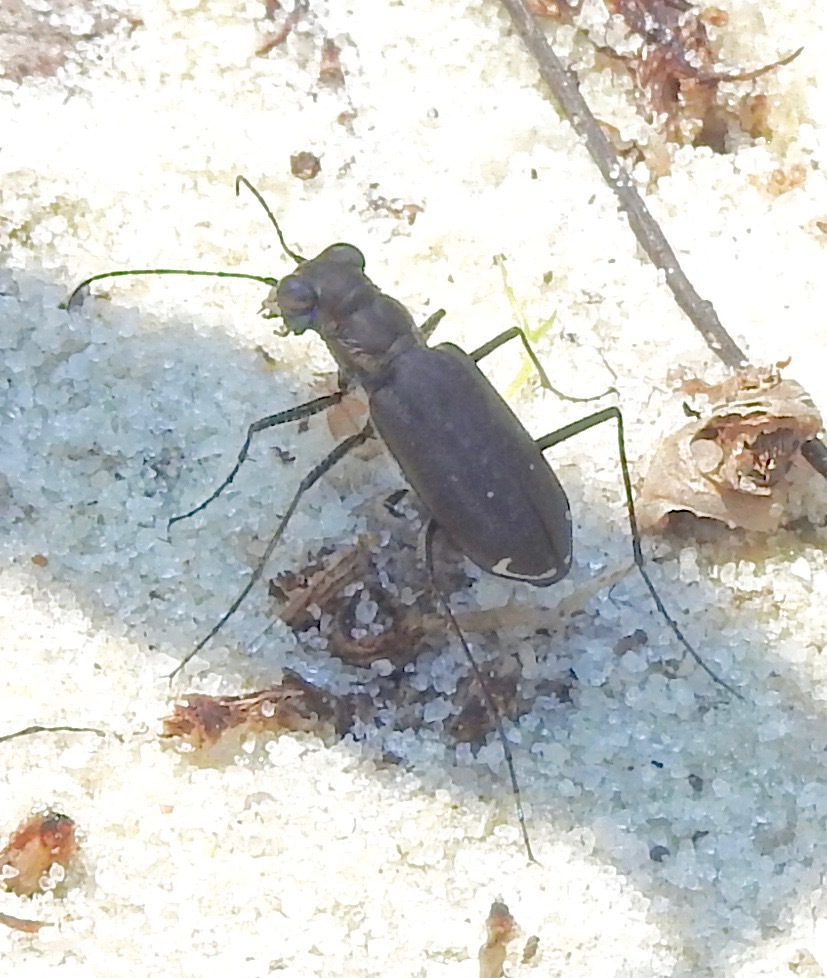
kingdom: Animalia
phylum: Arthropoda
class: Insecta
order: Coleoptera
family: Carabidae
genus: Cicindela
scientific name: Cicindela punctulata
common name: Punctured tiger beetle
